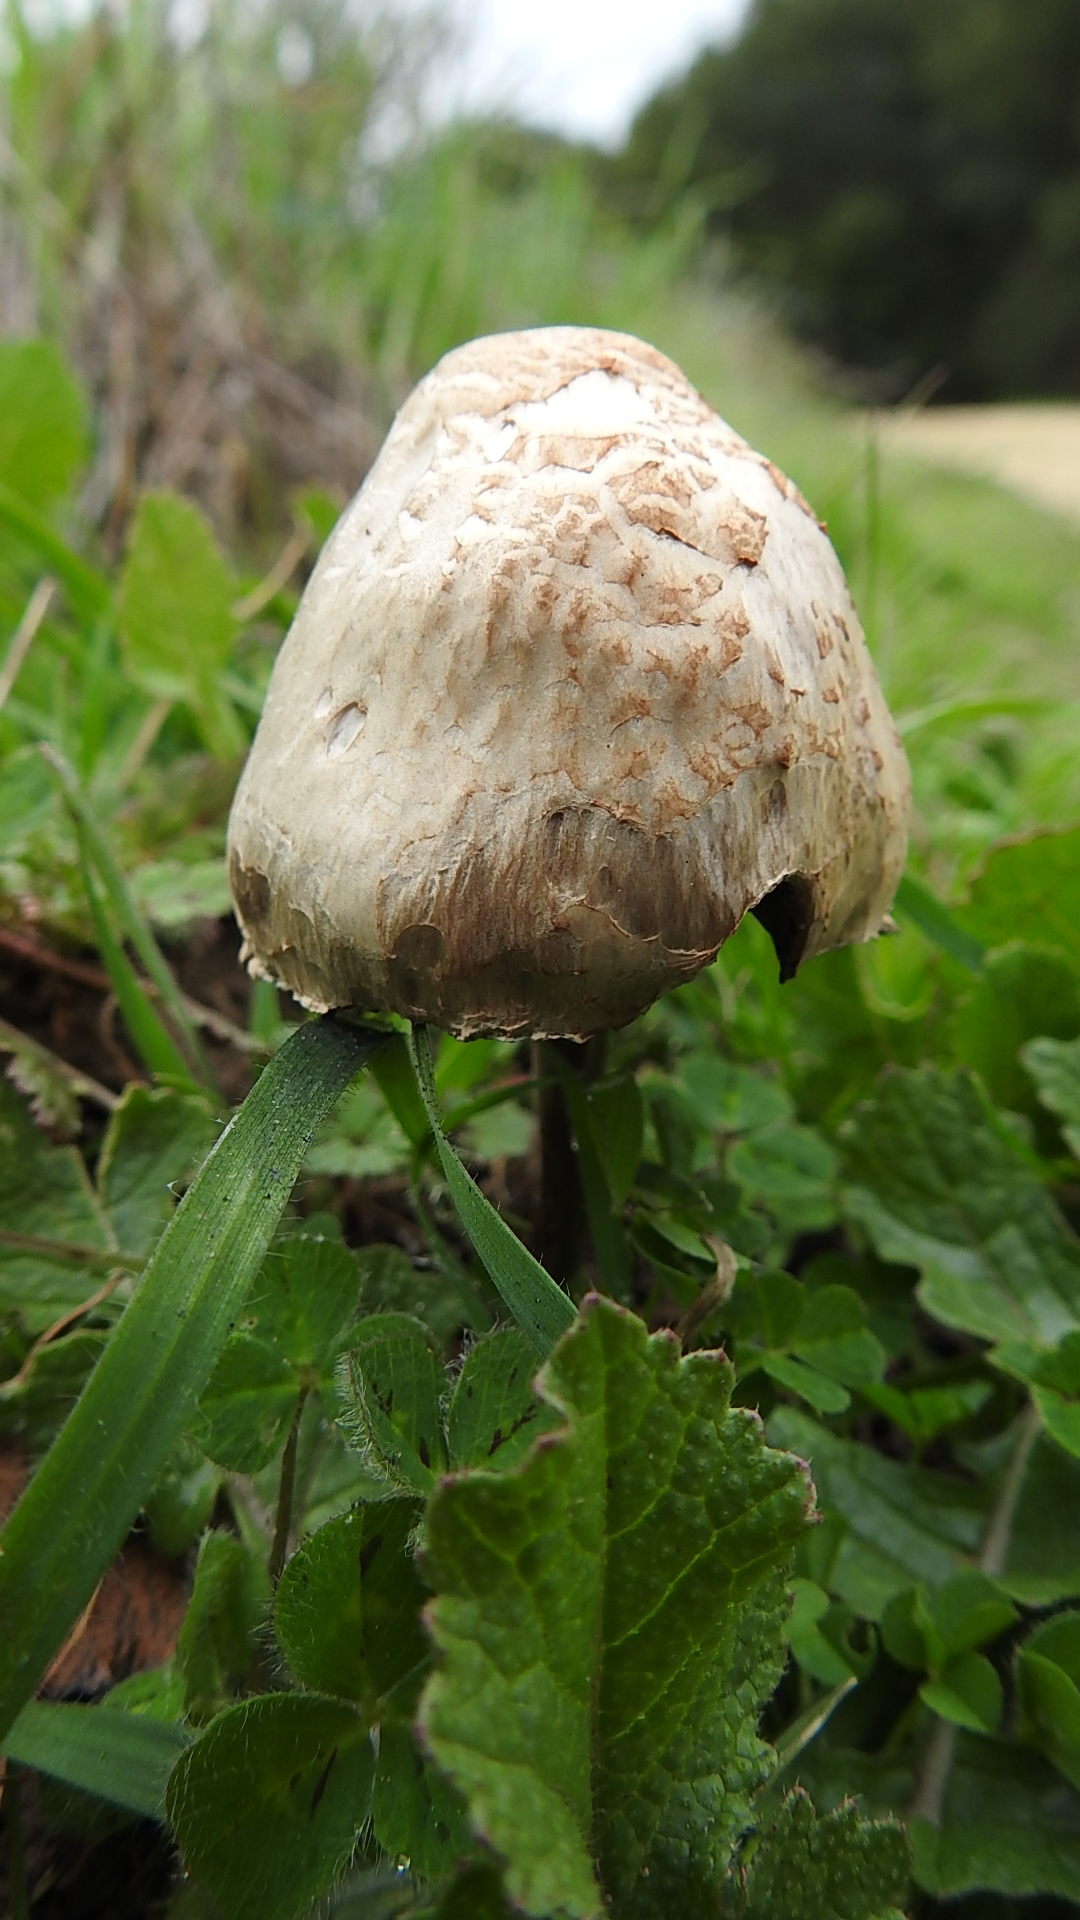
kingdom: Fungi
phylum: Basidiomycota
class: Agaricomycetes
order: Agaricales
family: Bolbitiaceae
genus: Panaeolus
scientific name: Panaeolus papilionaceus
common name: Petticoat mottlegill
